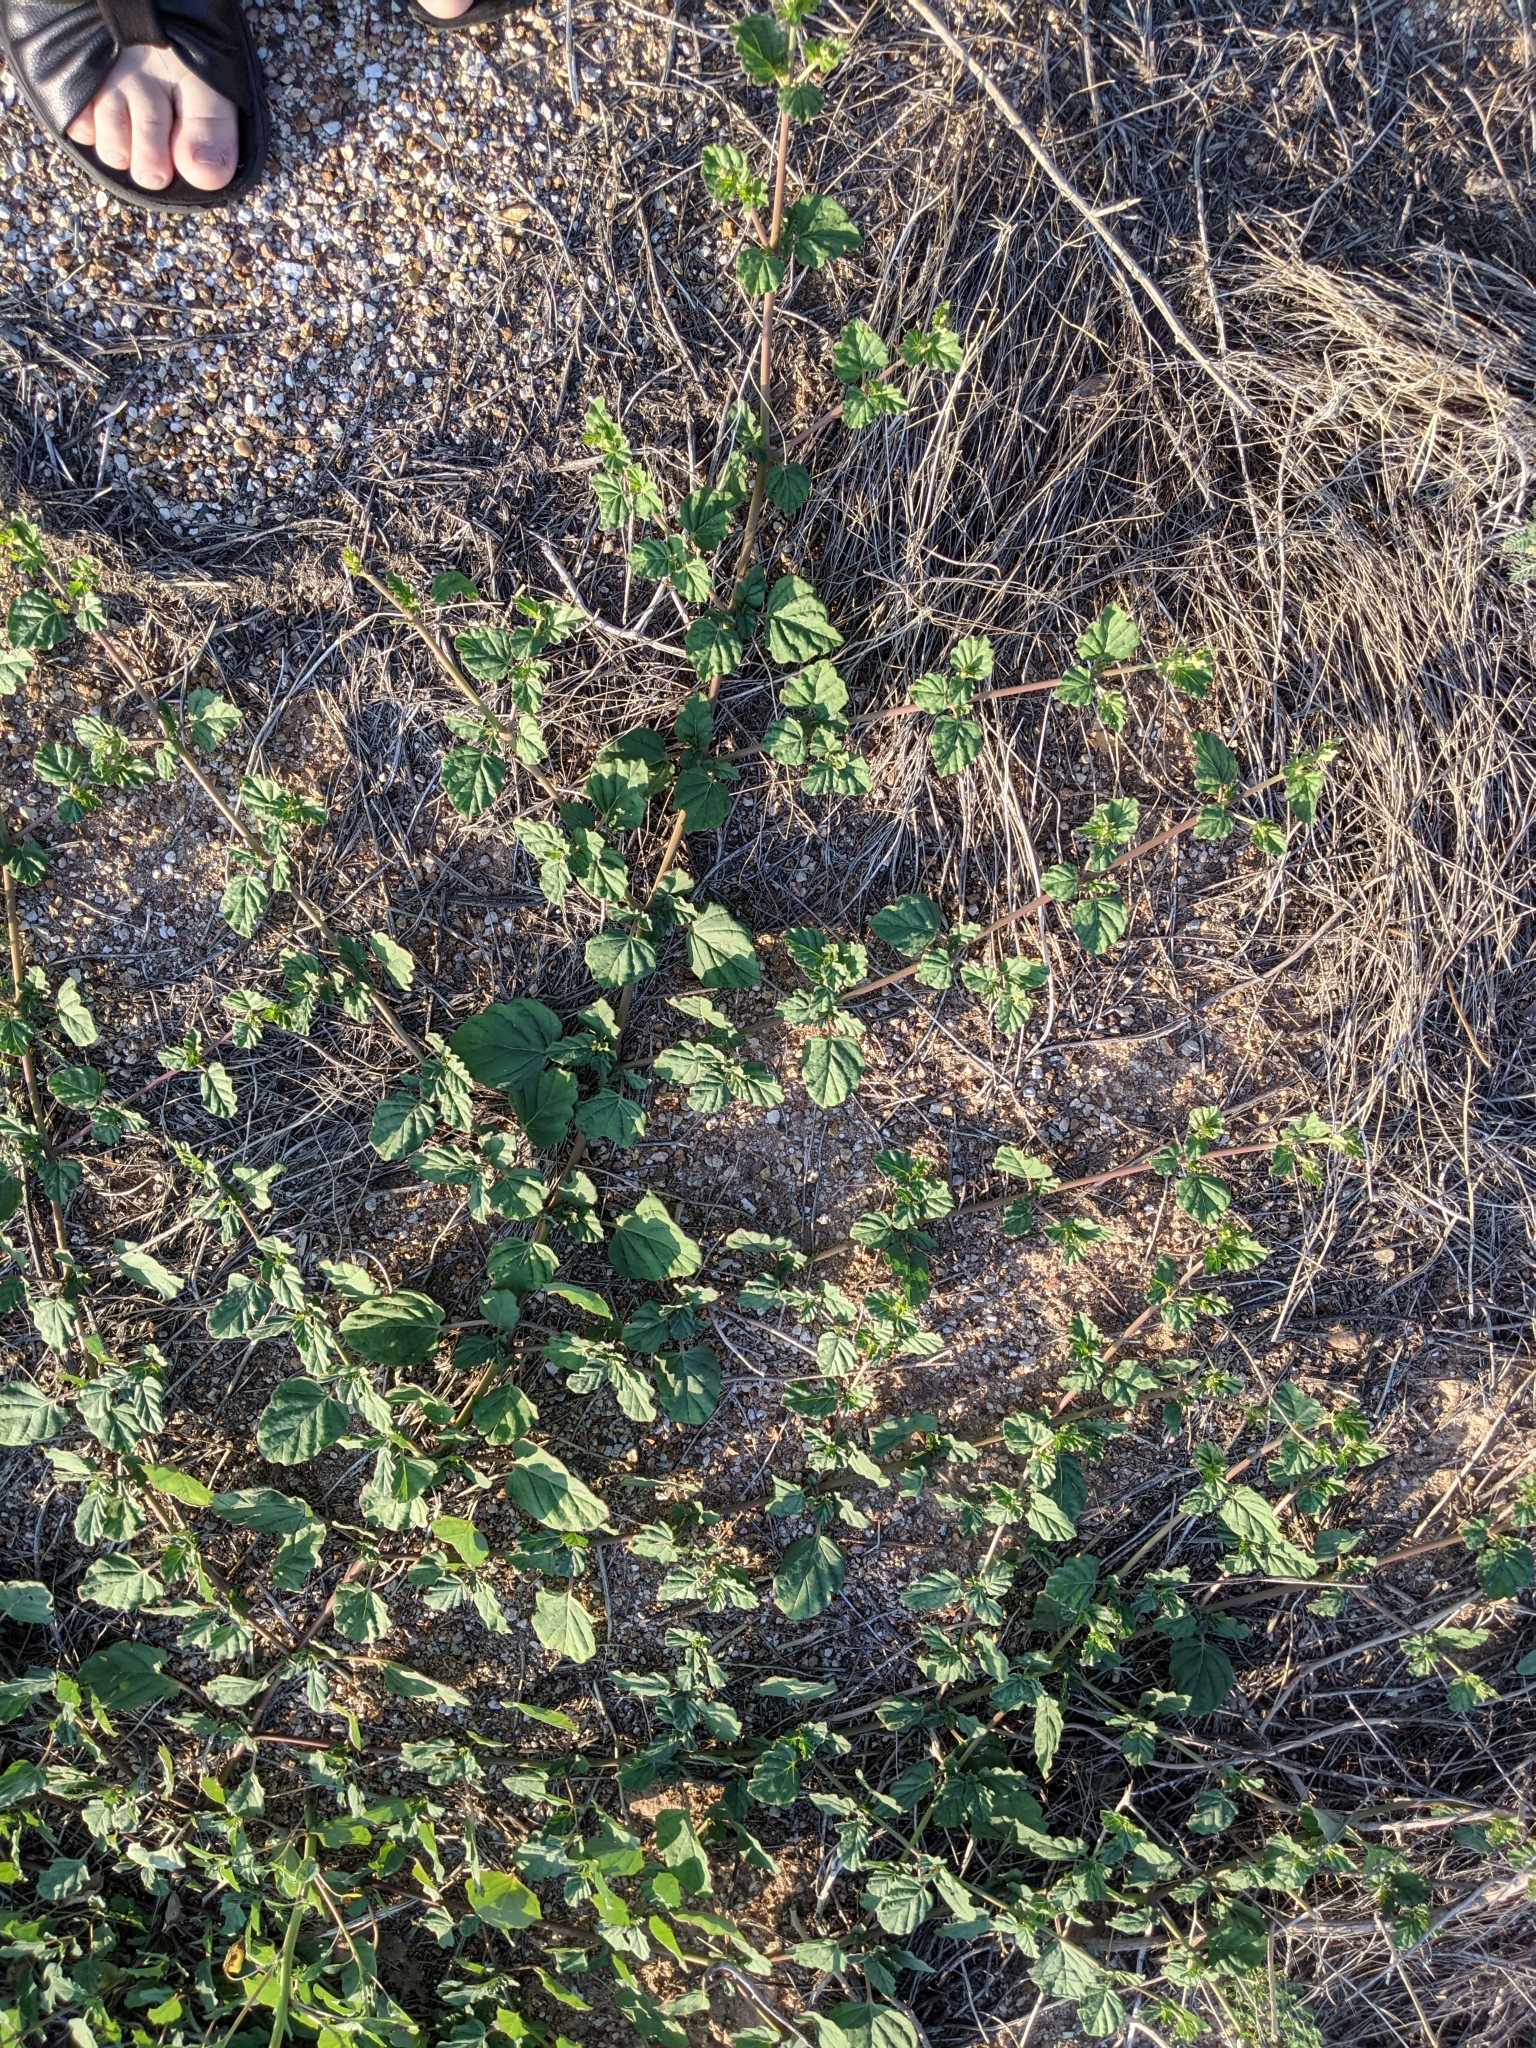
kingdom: Plantae
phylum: Tracheophyta
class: Magnoliopsida
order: Caryophyllales
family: Nyctaginaceae
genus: Boerhavia
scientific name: Boerhavia coccinea
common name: Scarlet spiderling
